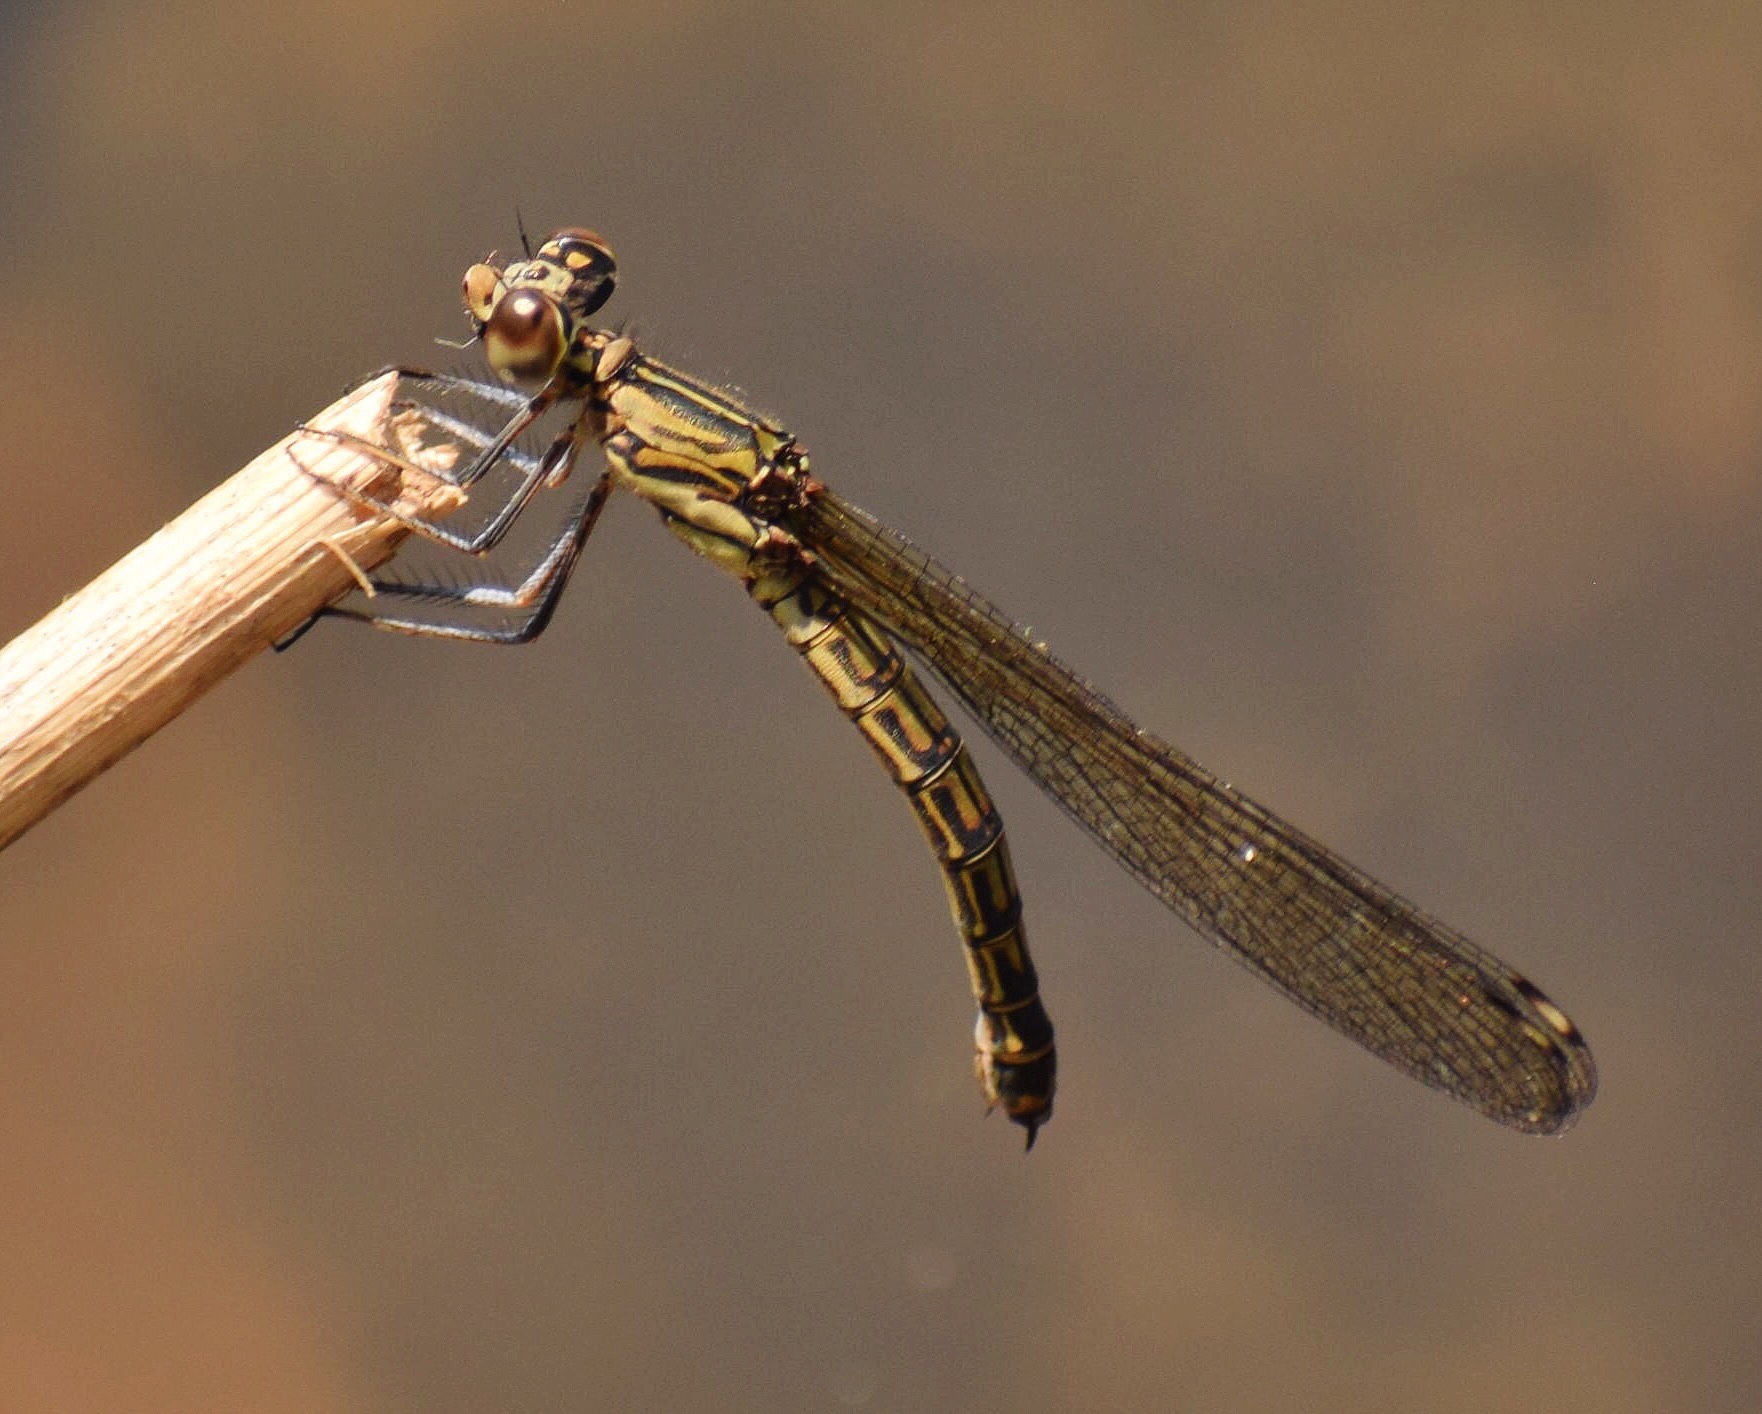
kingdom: Animalia
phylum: Arthropoda
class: Insecta
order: Odonata
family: Chlorocyphidae
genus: Platycypha
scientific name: Platycypha caligata
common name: Dancing jewel
